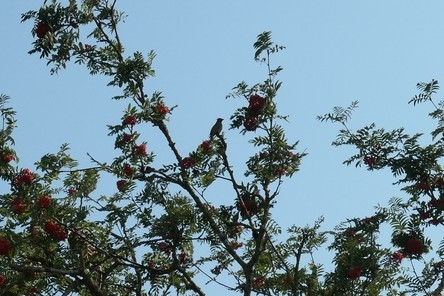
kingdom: Animalia
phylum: Chordata
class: Aves
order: Passeriformes
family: Bombycillidae
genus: Bombycilla
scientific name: Bombycilla cedrorum
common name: Cedar waxwing
